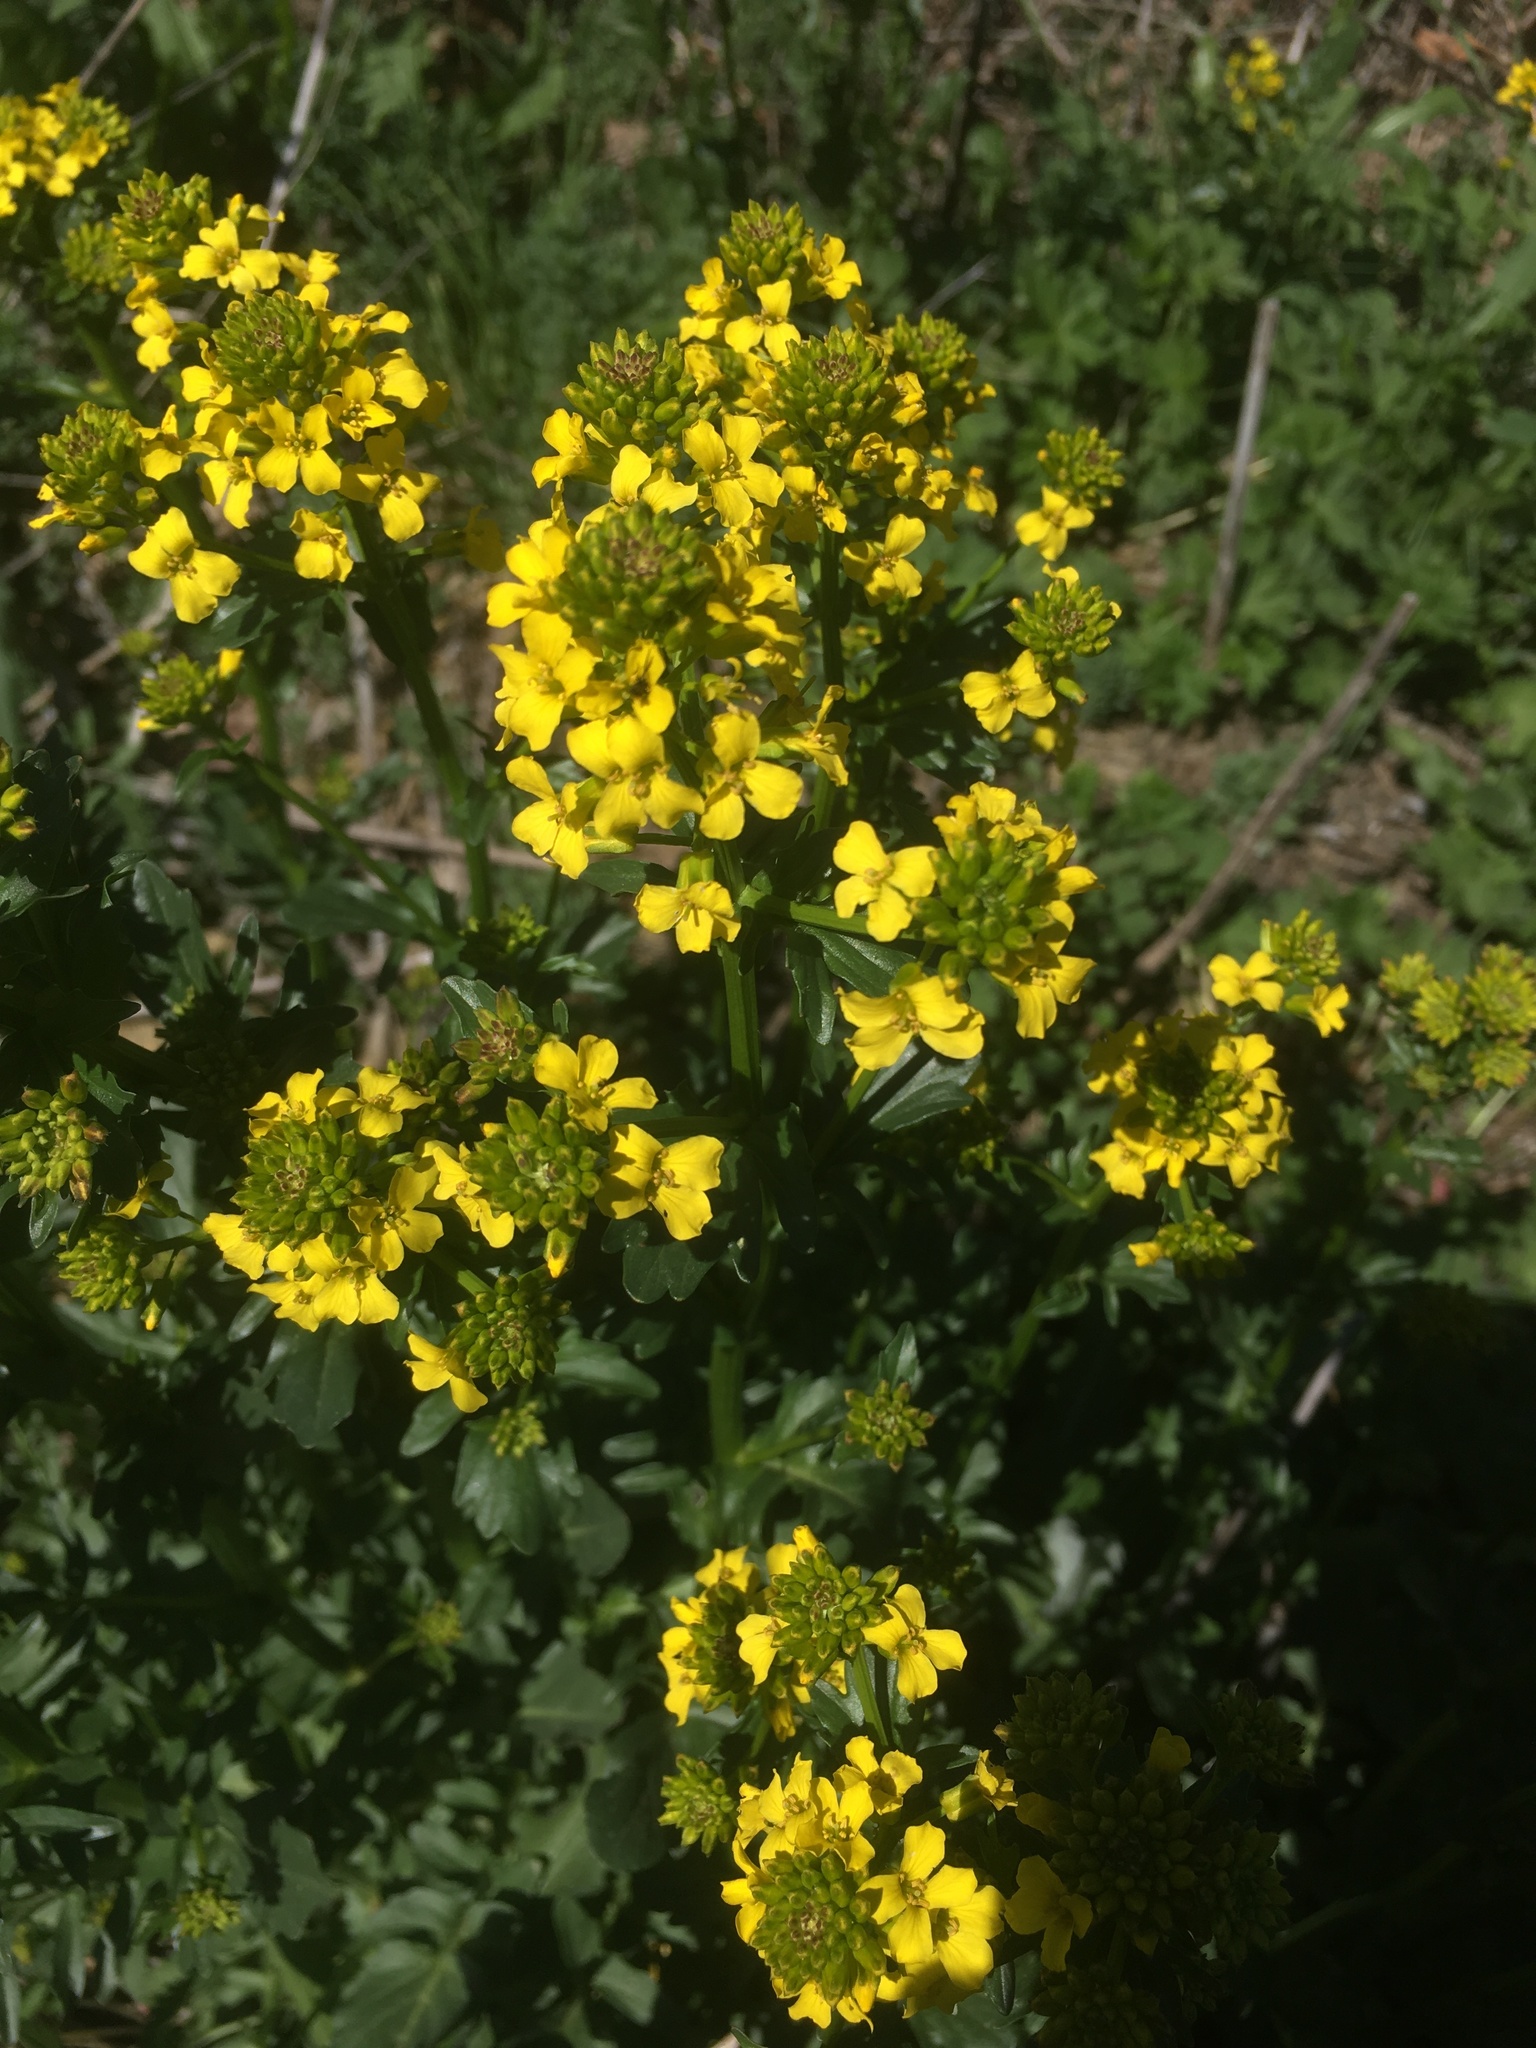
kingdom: Plantae
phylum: Tracheophyta
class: Magnoliopsida
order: Brassicales
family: Brassicaceae
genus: Barbarea
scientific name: Barbarea vulgaris
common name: Cressy-greens
